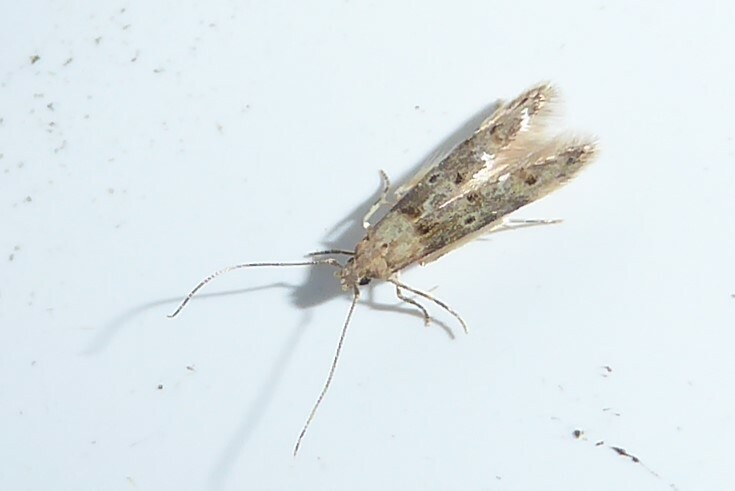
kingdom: Animalia
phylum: Arthropoda
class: Insecta
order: Lepidoptera
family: Elachistidae
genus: Microcolona
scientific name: Microcolona limodes
